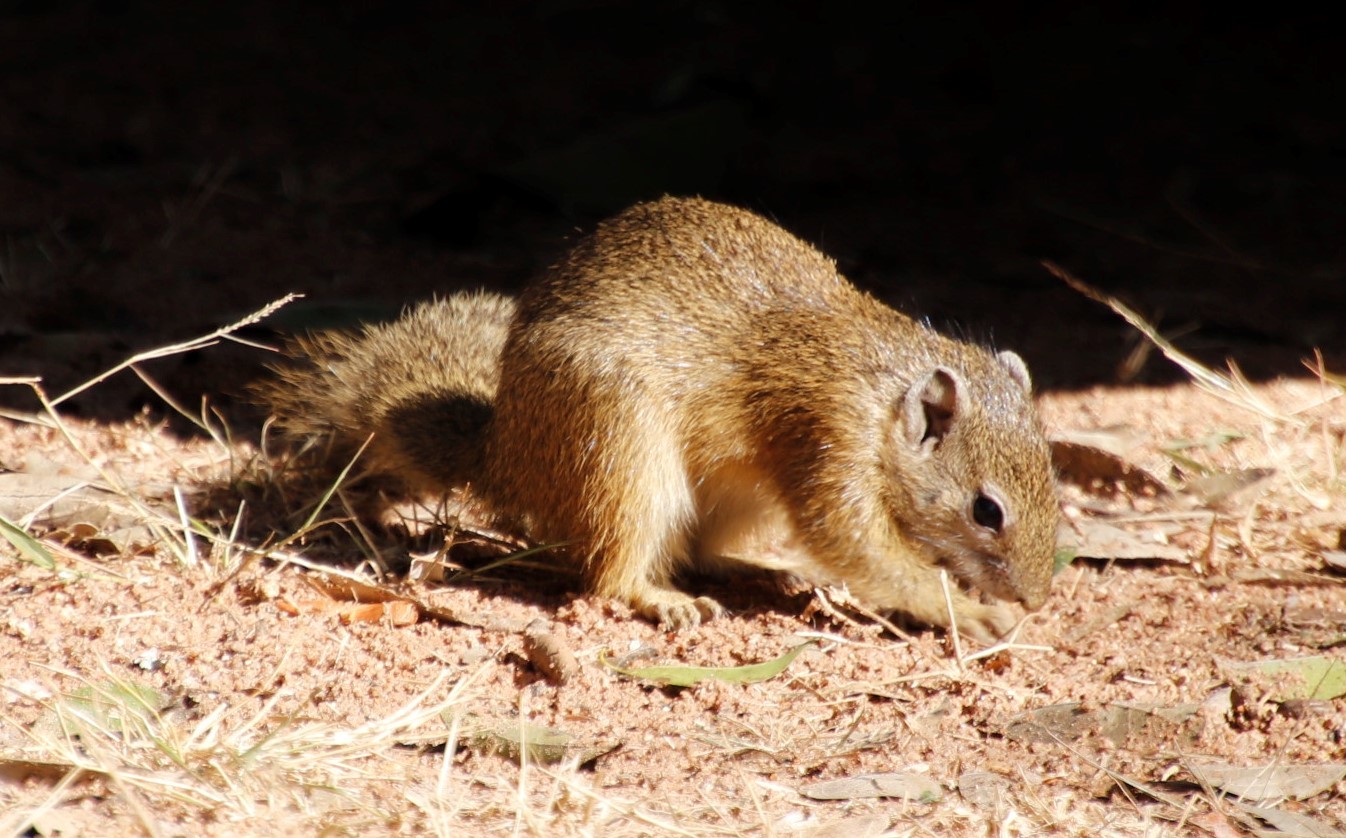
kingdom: Animalia
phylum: Chordata
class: Mammalia
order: Rodentia
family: Sciuridae
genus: Paraxerus
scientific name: Paraxerus cepapi
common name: Smith's bush squirrel
